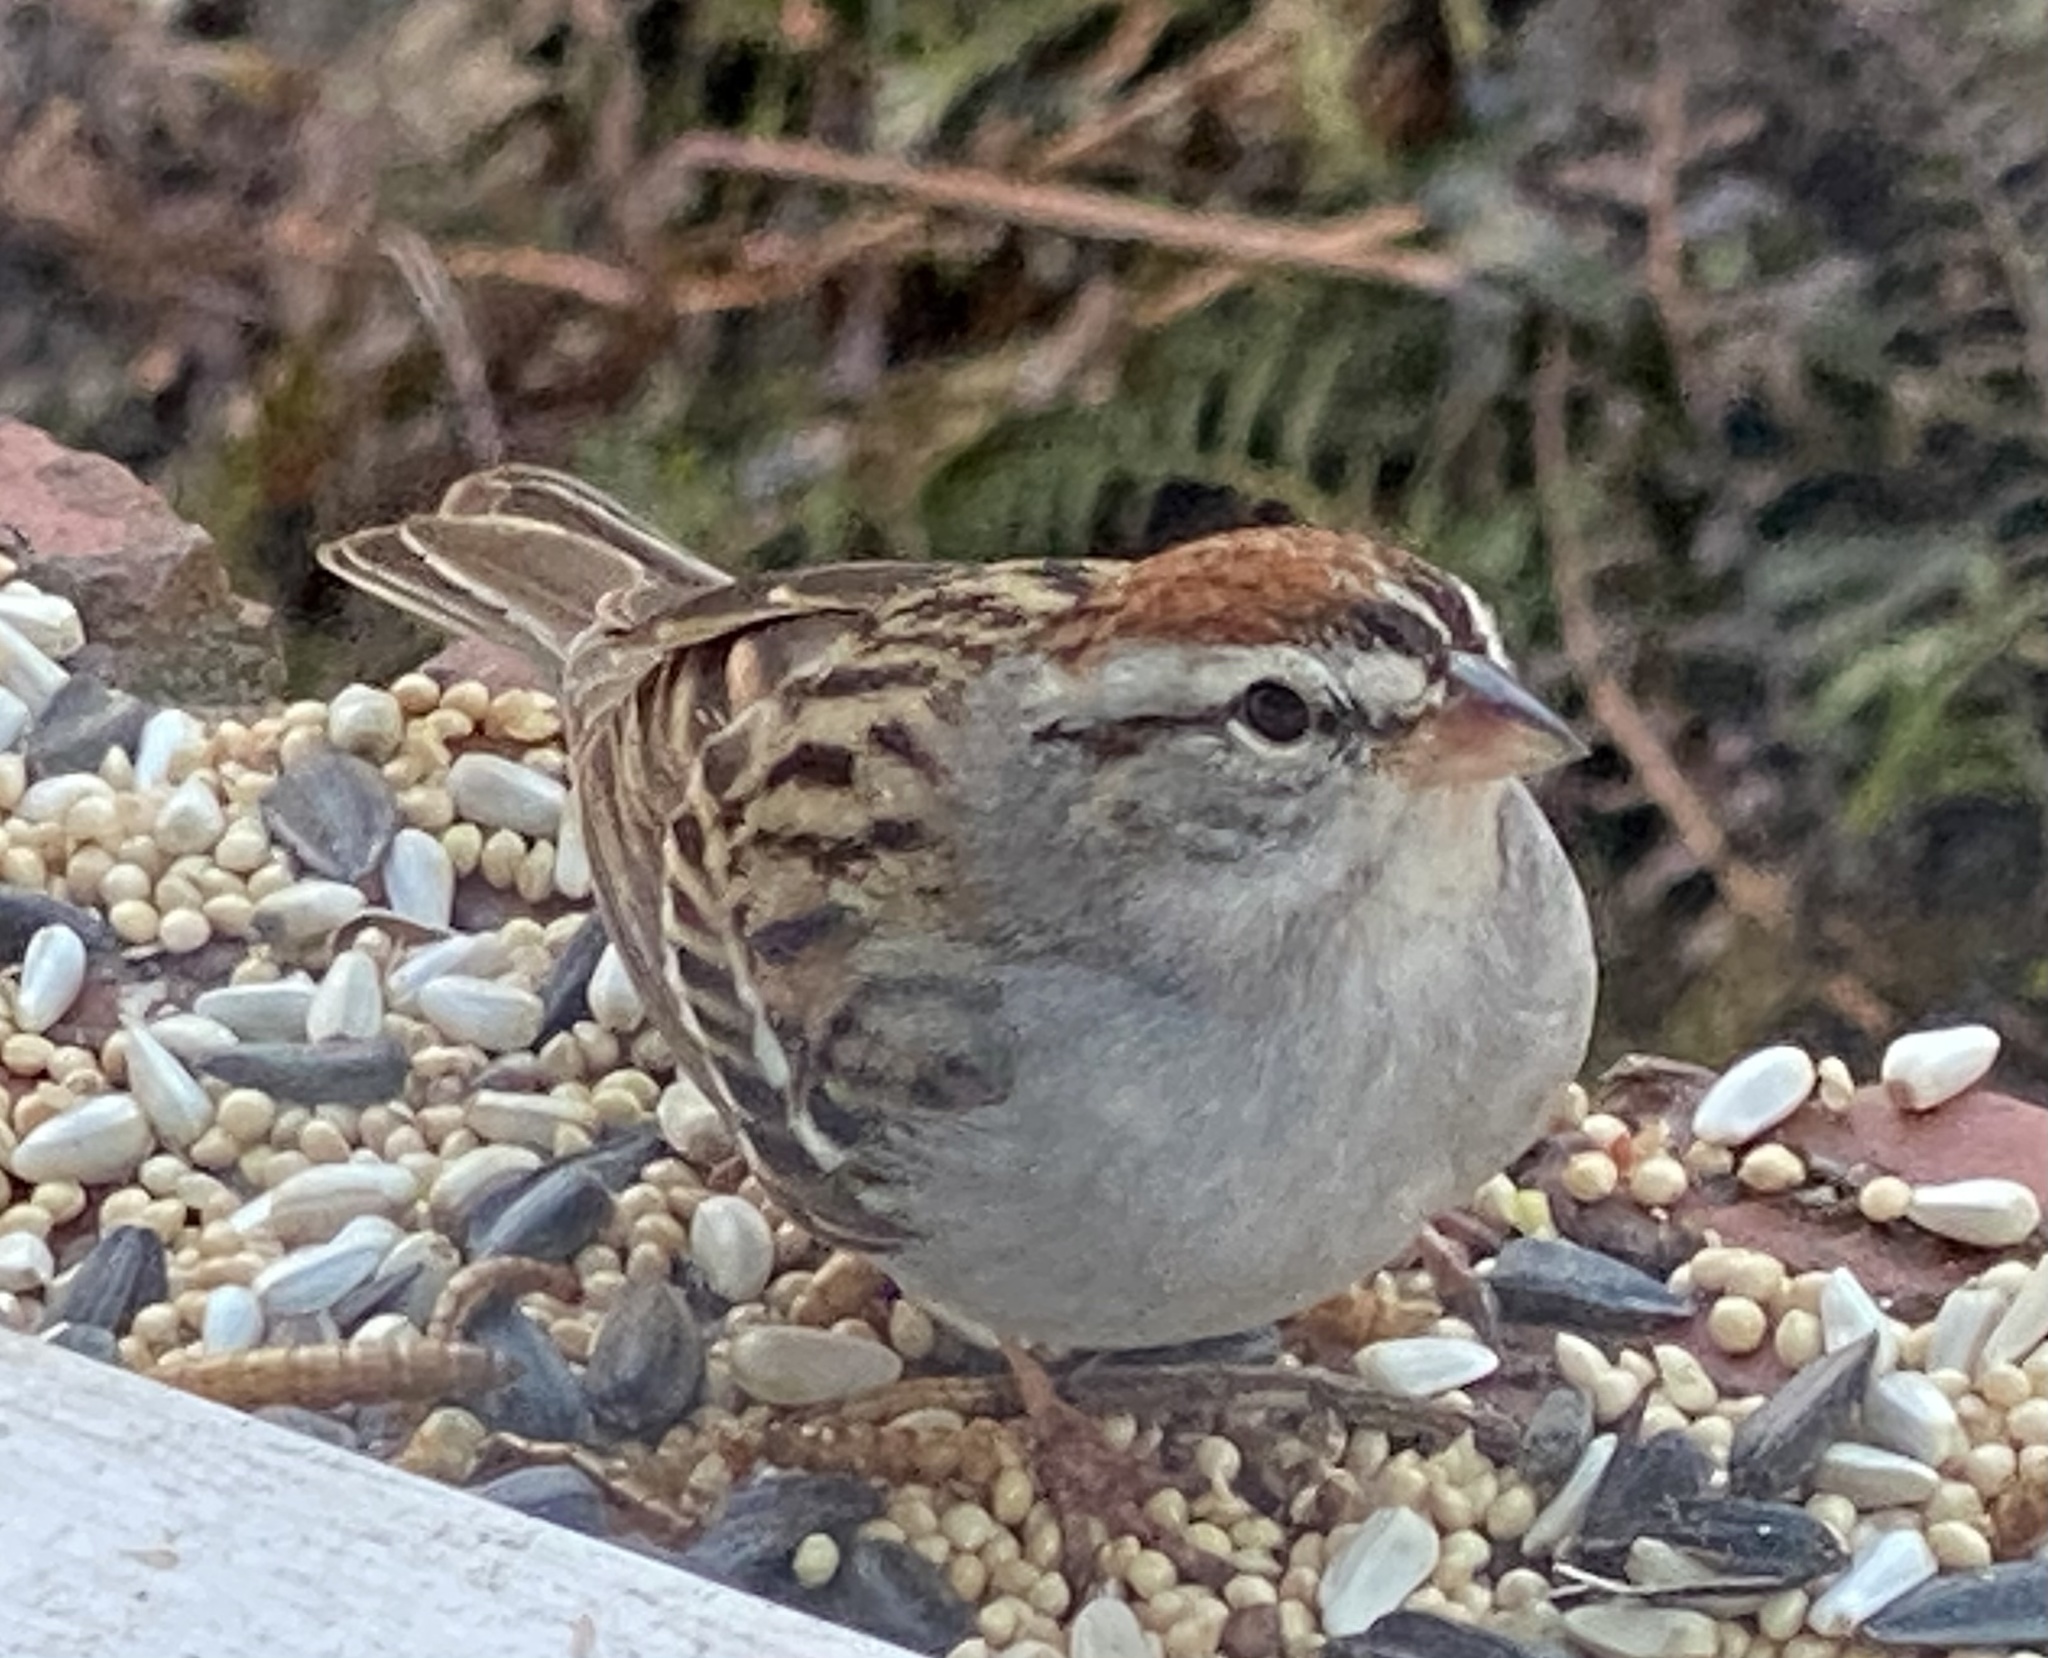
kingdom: Animalia
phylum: Chordata
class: Aves
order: Passeriformes
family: Passerellidae
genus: Spizella
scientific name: Spizella passerina
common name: Chipping sparrow
